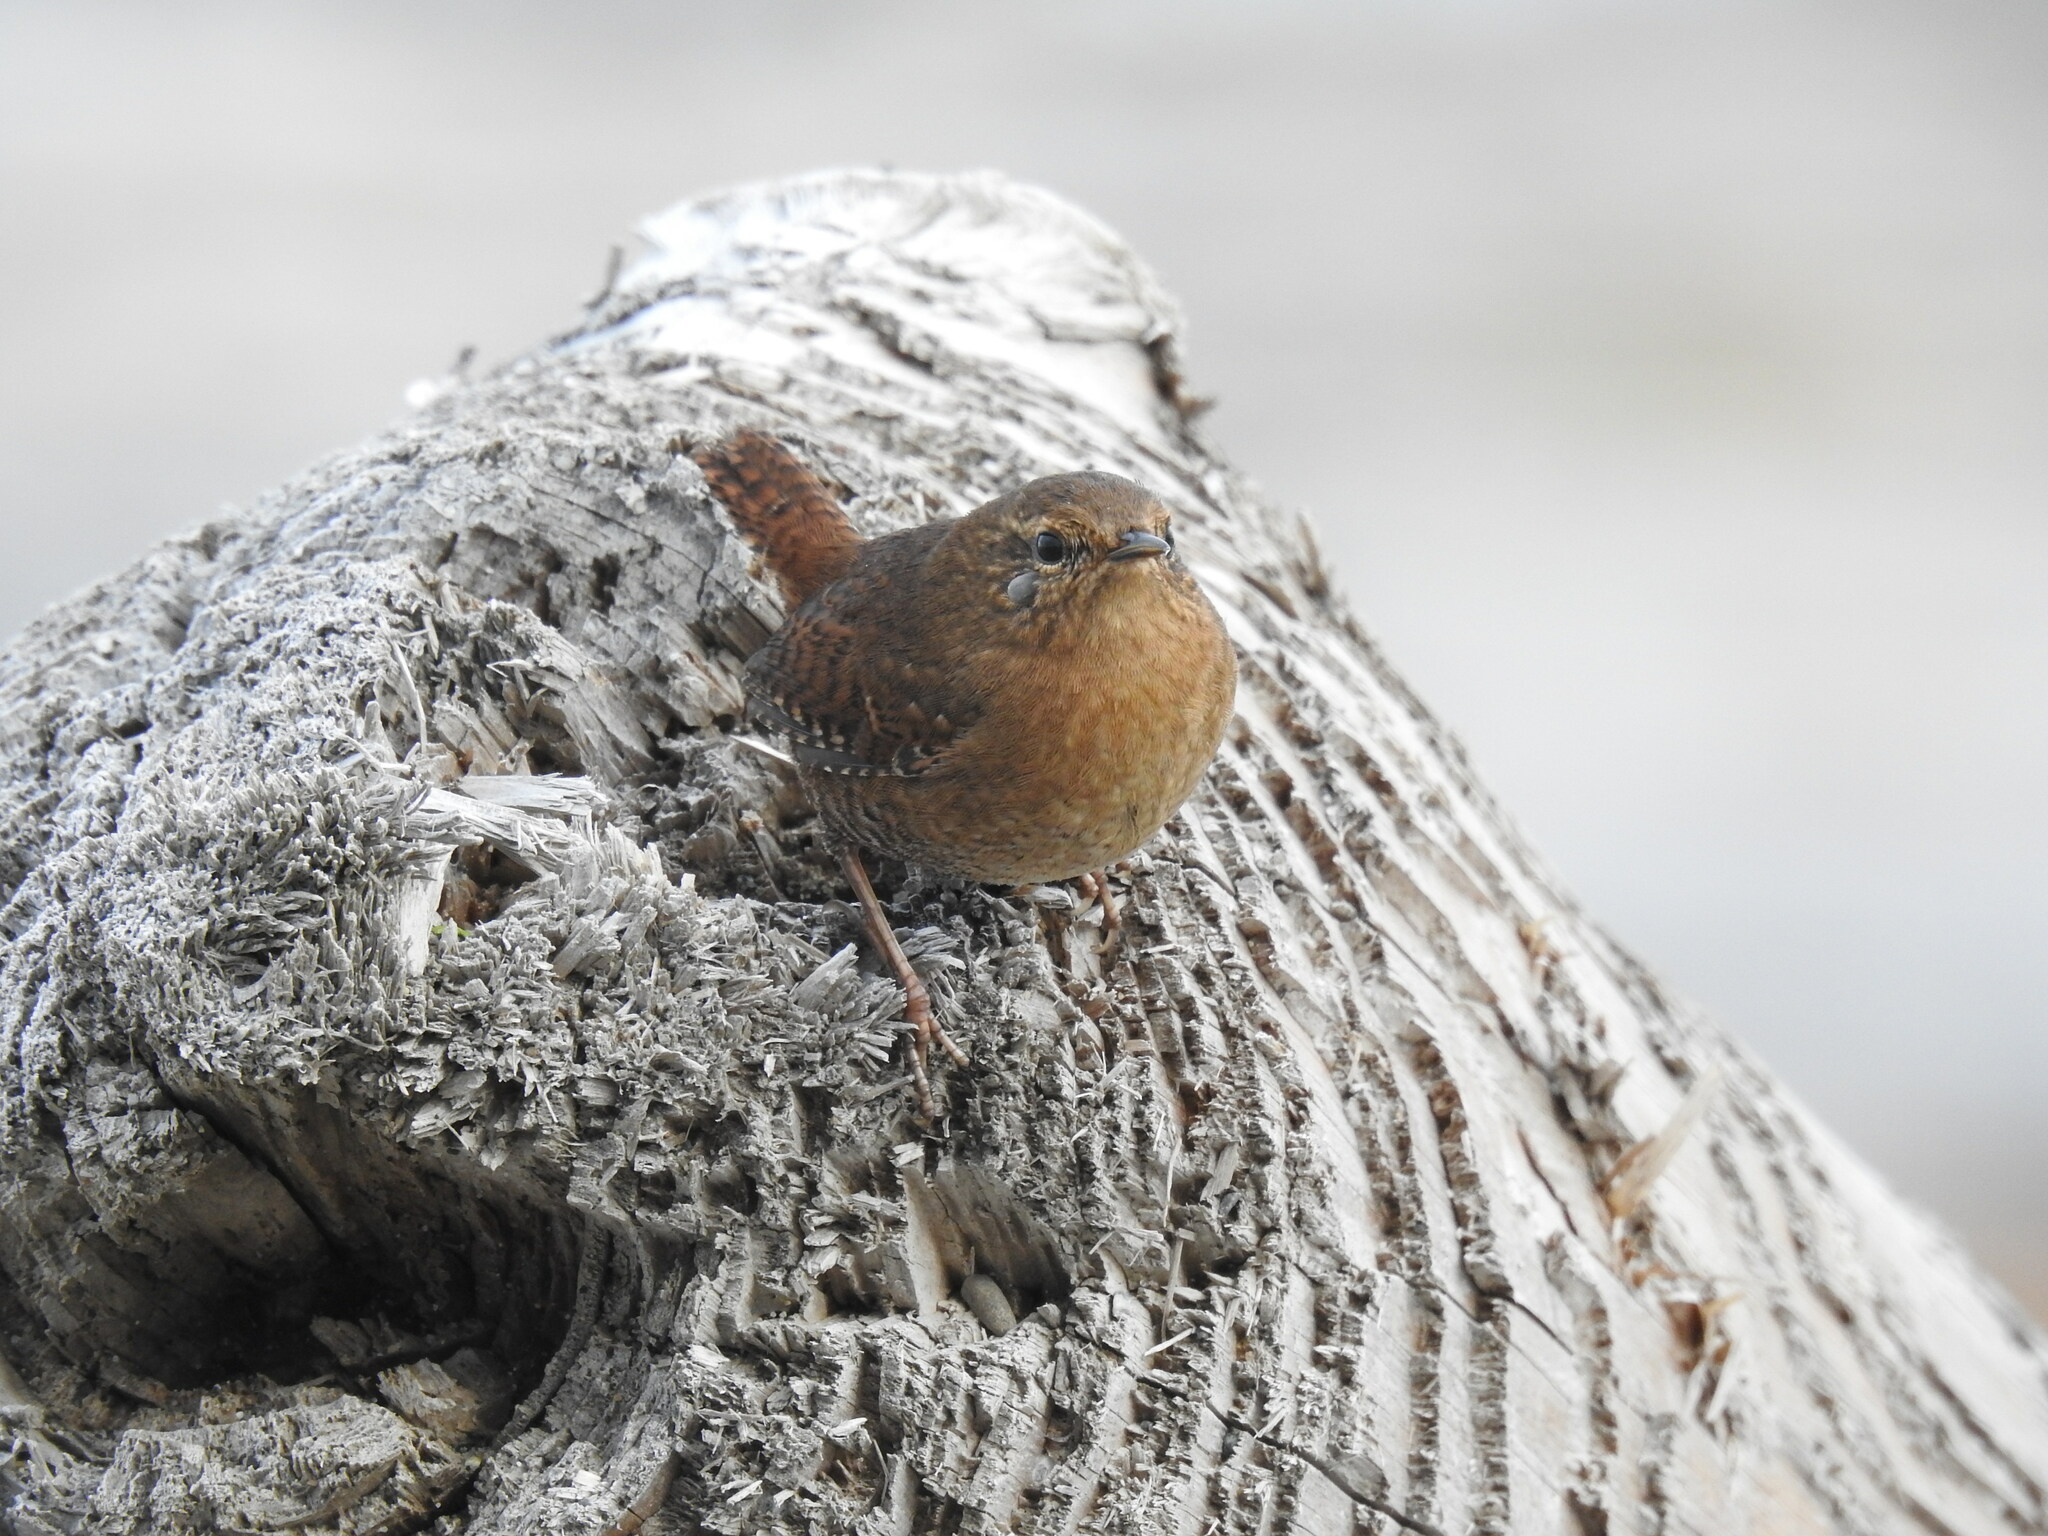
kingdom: Animalia
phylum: Chordata
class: Aves
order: Passeriformes
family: Troglodytidae
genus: Troglodytes
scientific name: Troglodytes pacificus
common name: Pacific wren
